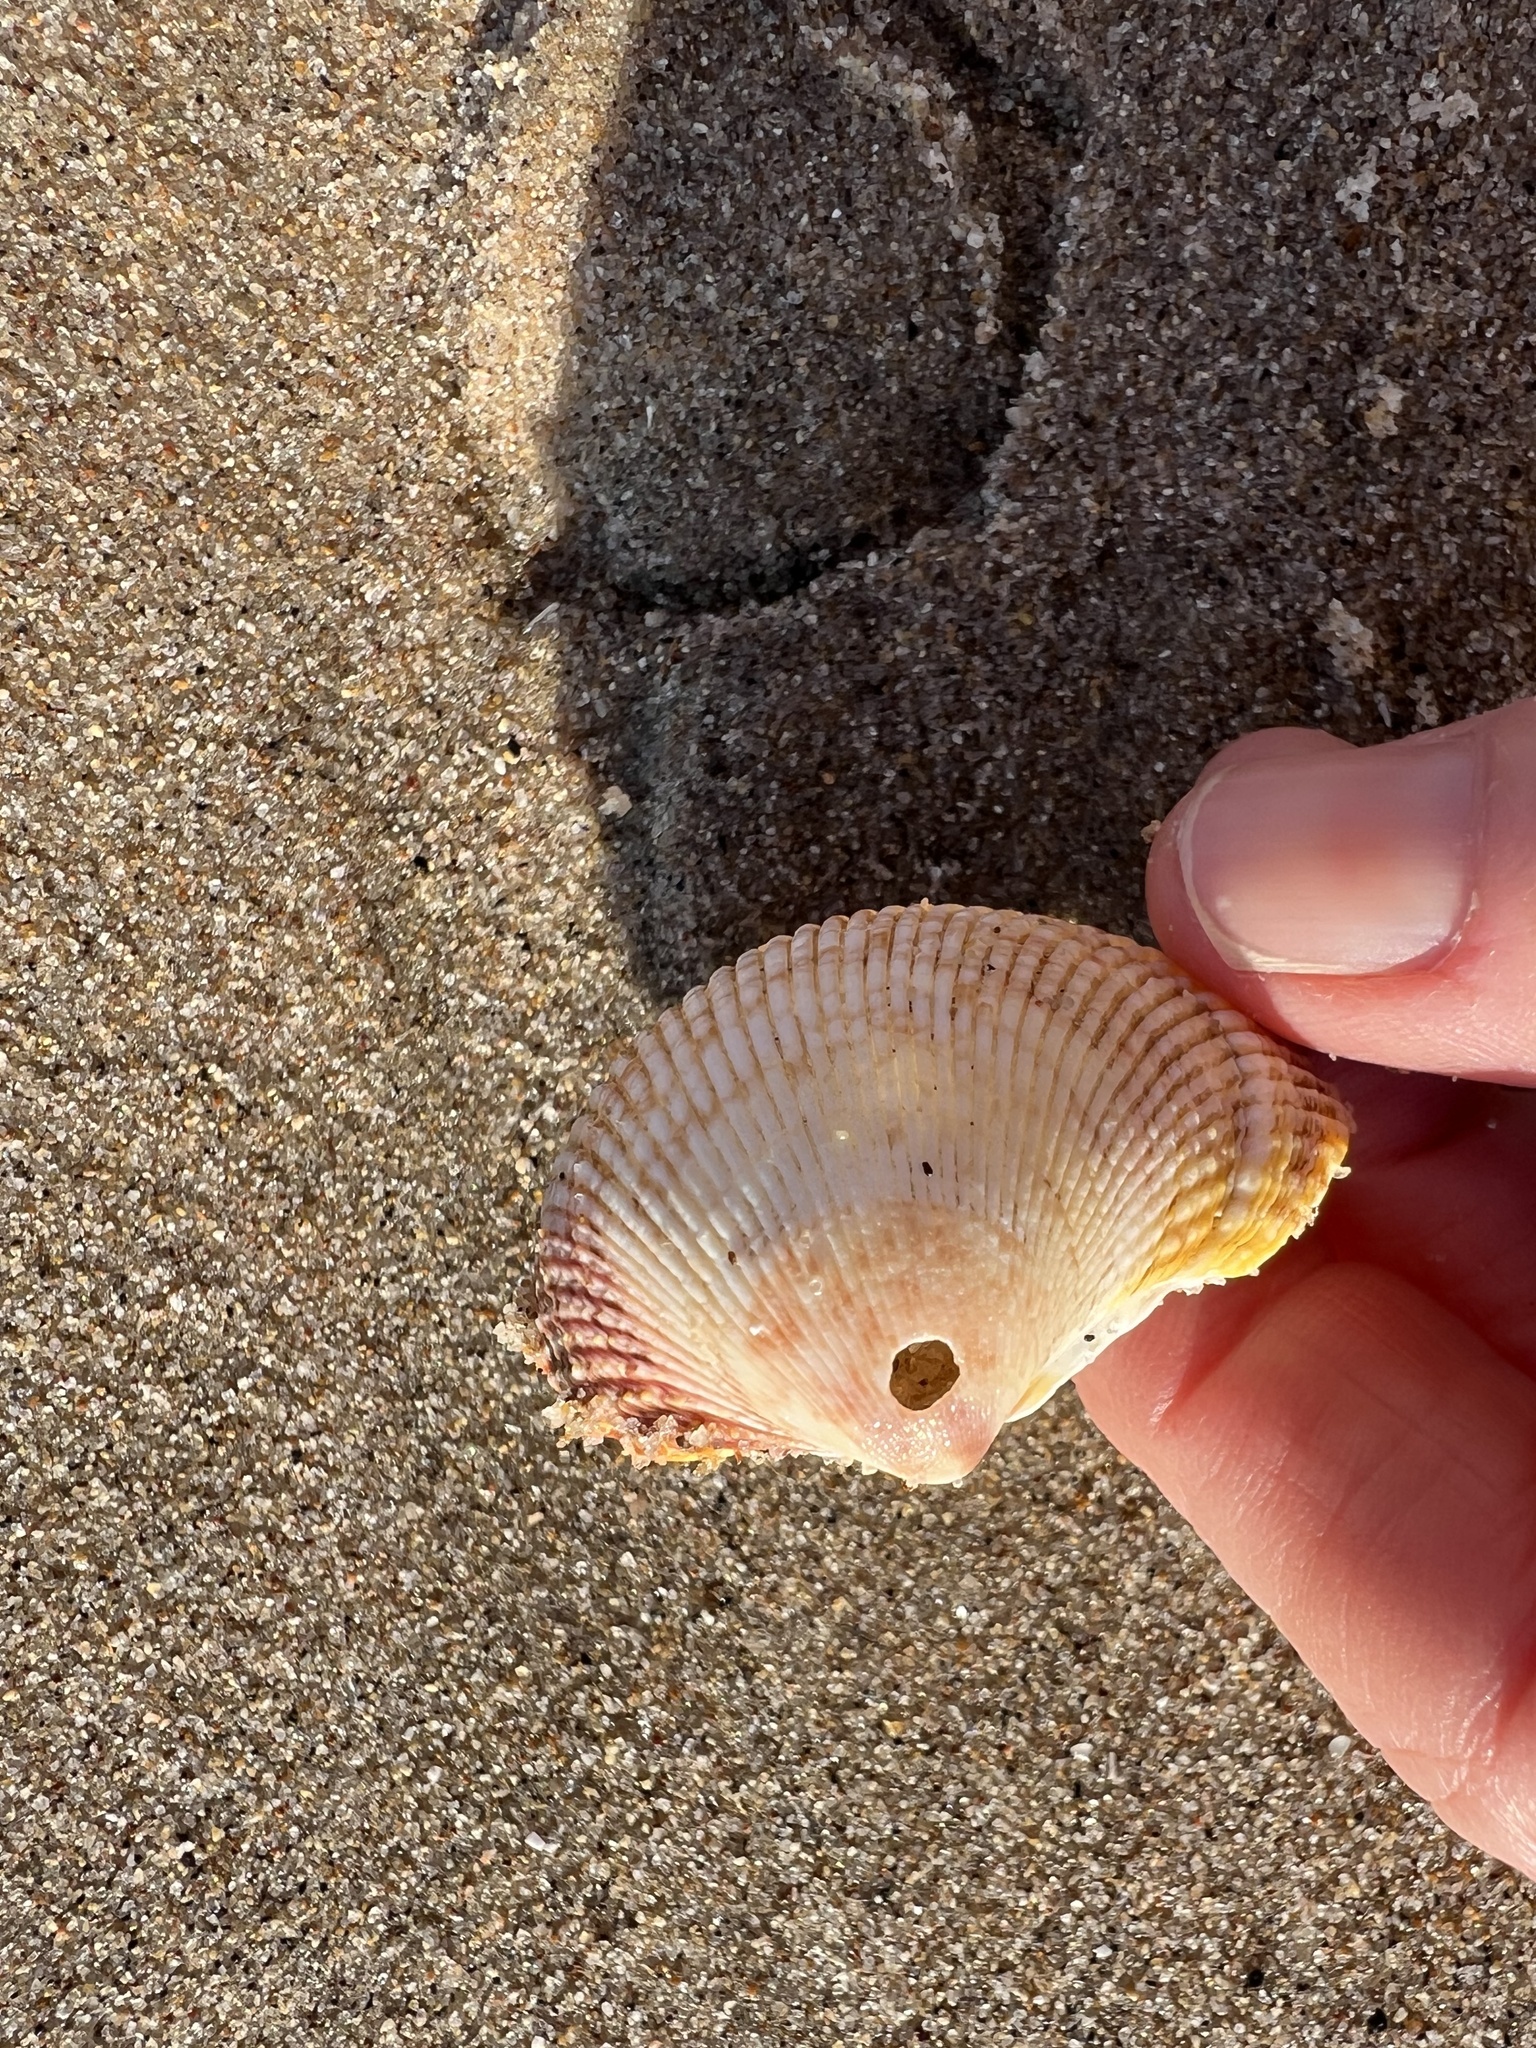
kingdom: Animalia
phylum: Mollusca
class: Bivalvia
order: Cardiida
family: Cardiidae
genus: Dallocardia
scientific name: Dallocardia quadragenaria
